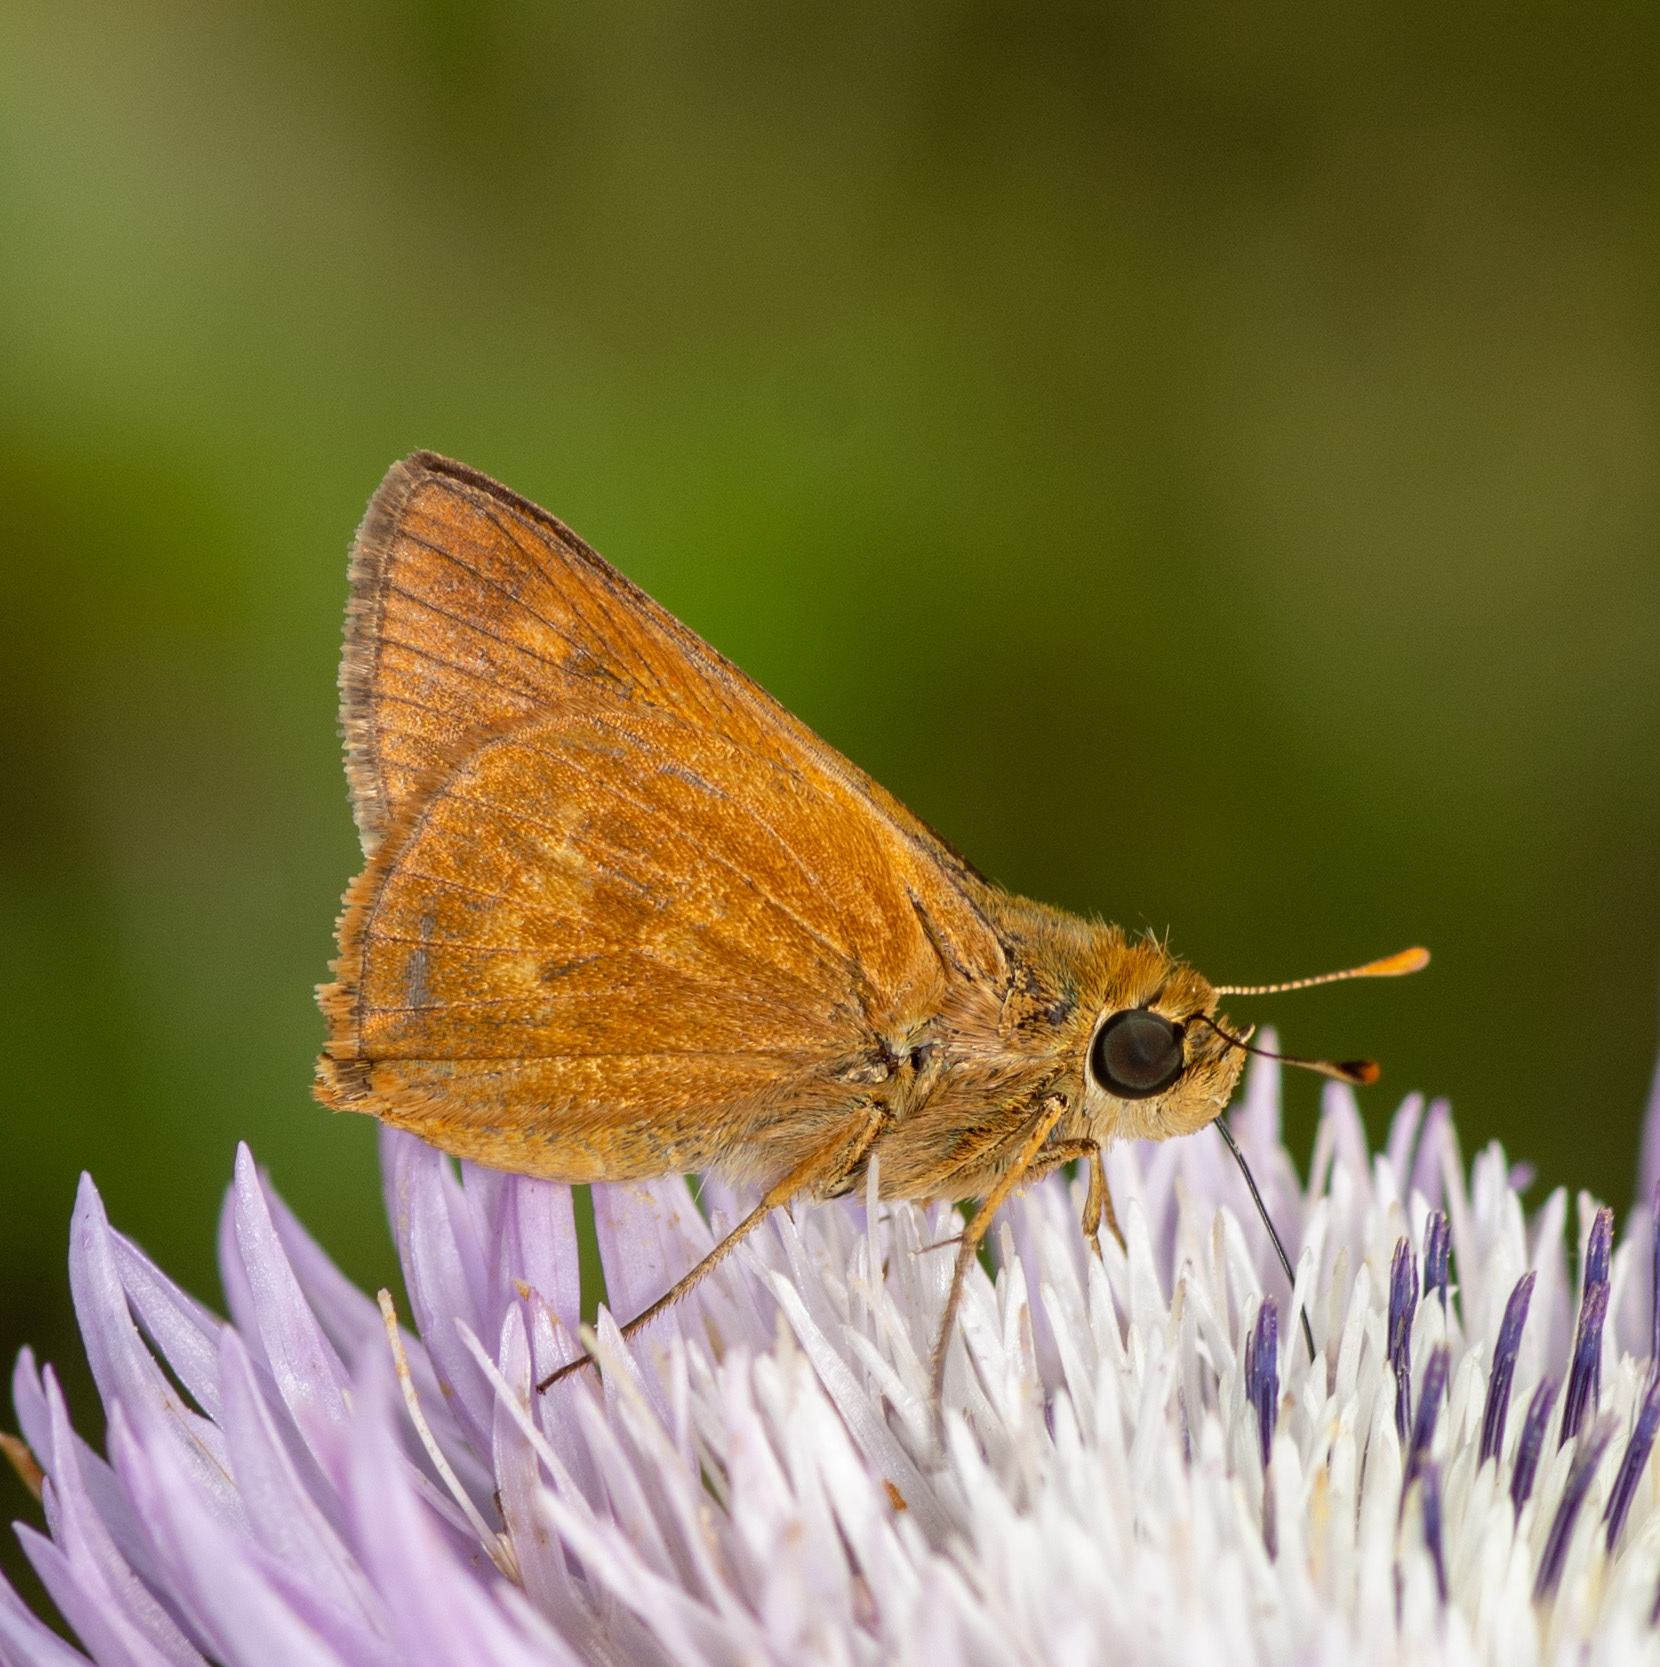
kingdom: Animalia
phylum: Arthropoda
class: Insecta
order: Lepidoptera
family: Hesperiidae
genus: Polites
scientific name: Polites otho
